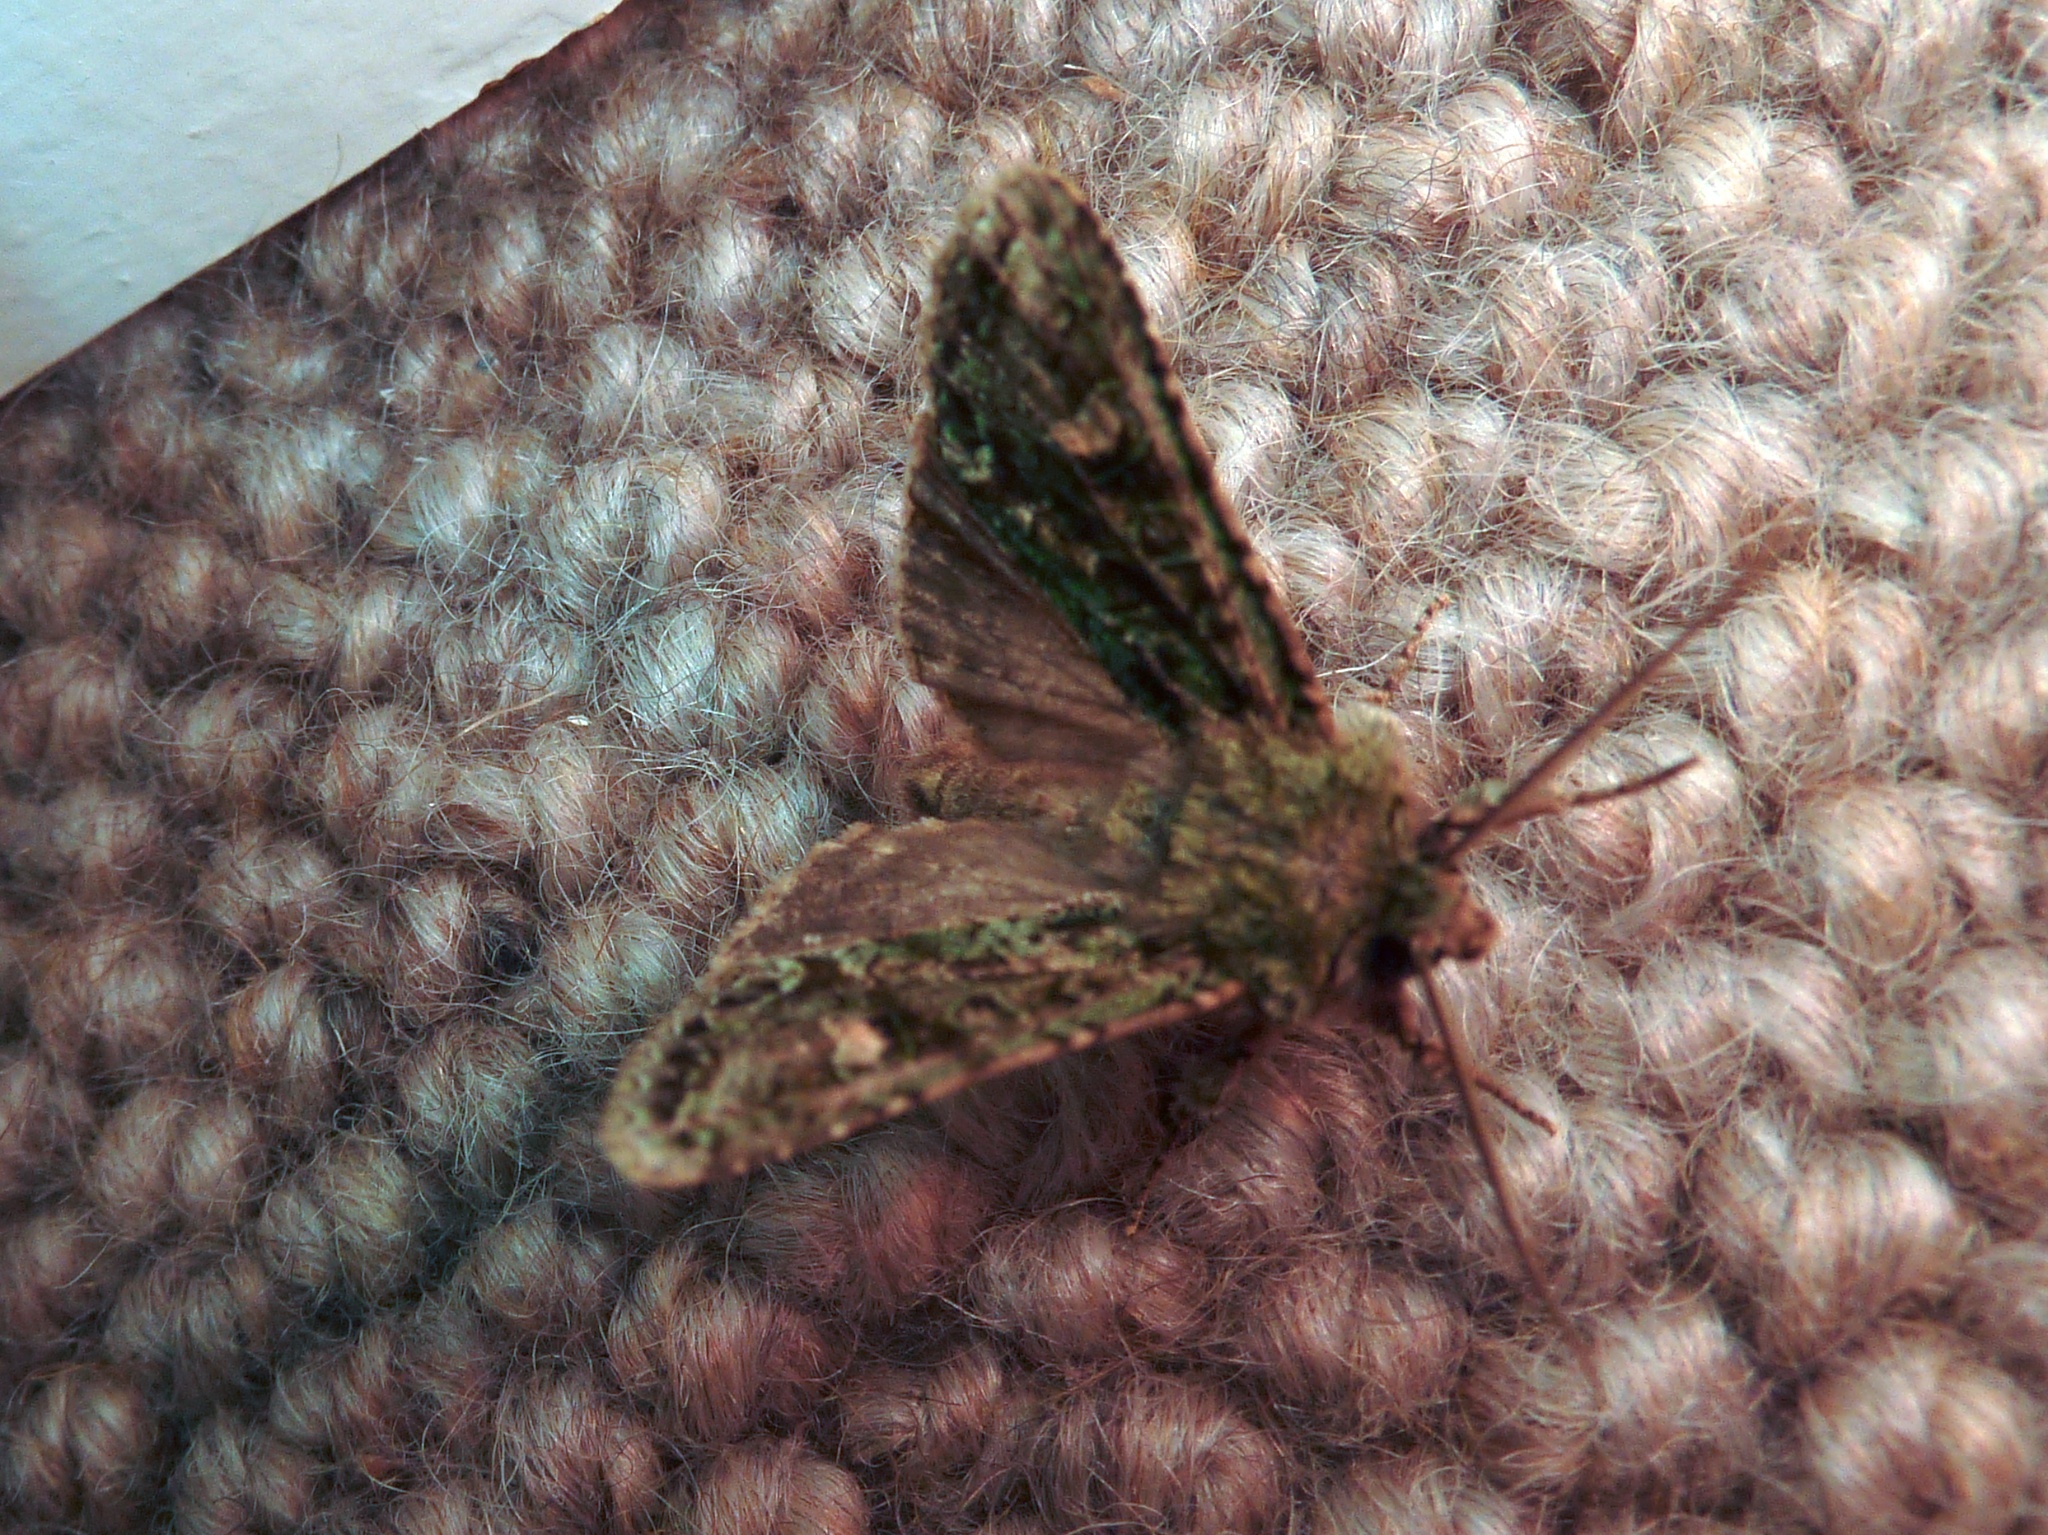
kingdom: Animalia
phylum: Arthropoda
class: Insecta
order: Lepidoptera
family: Noctuidae
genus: Ichneutica
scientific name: Ichneutica
